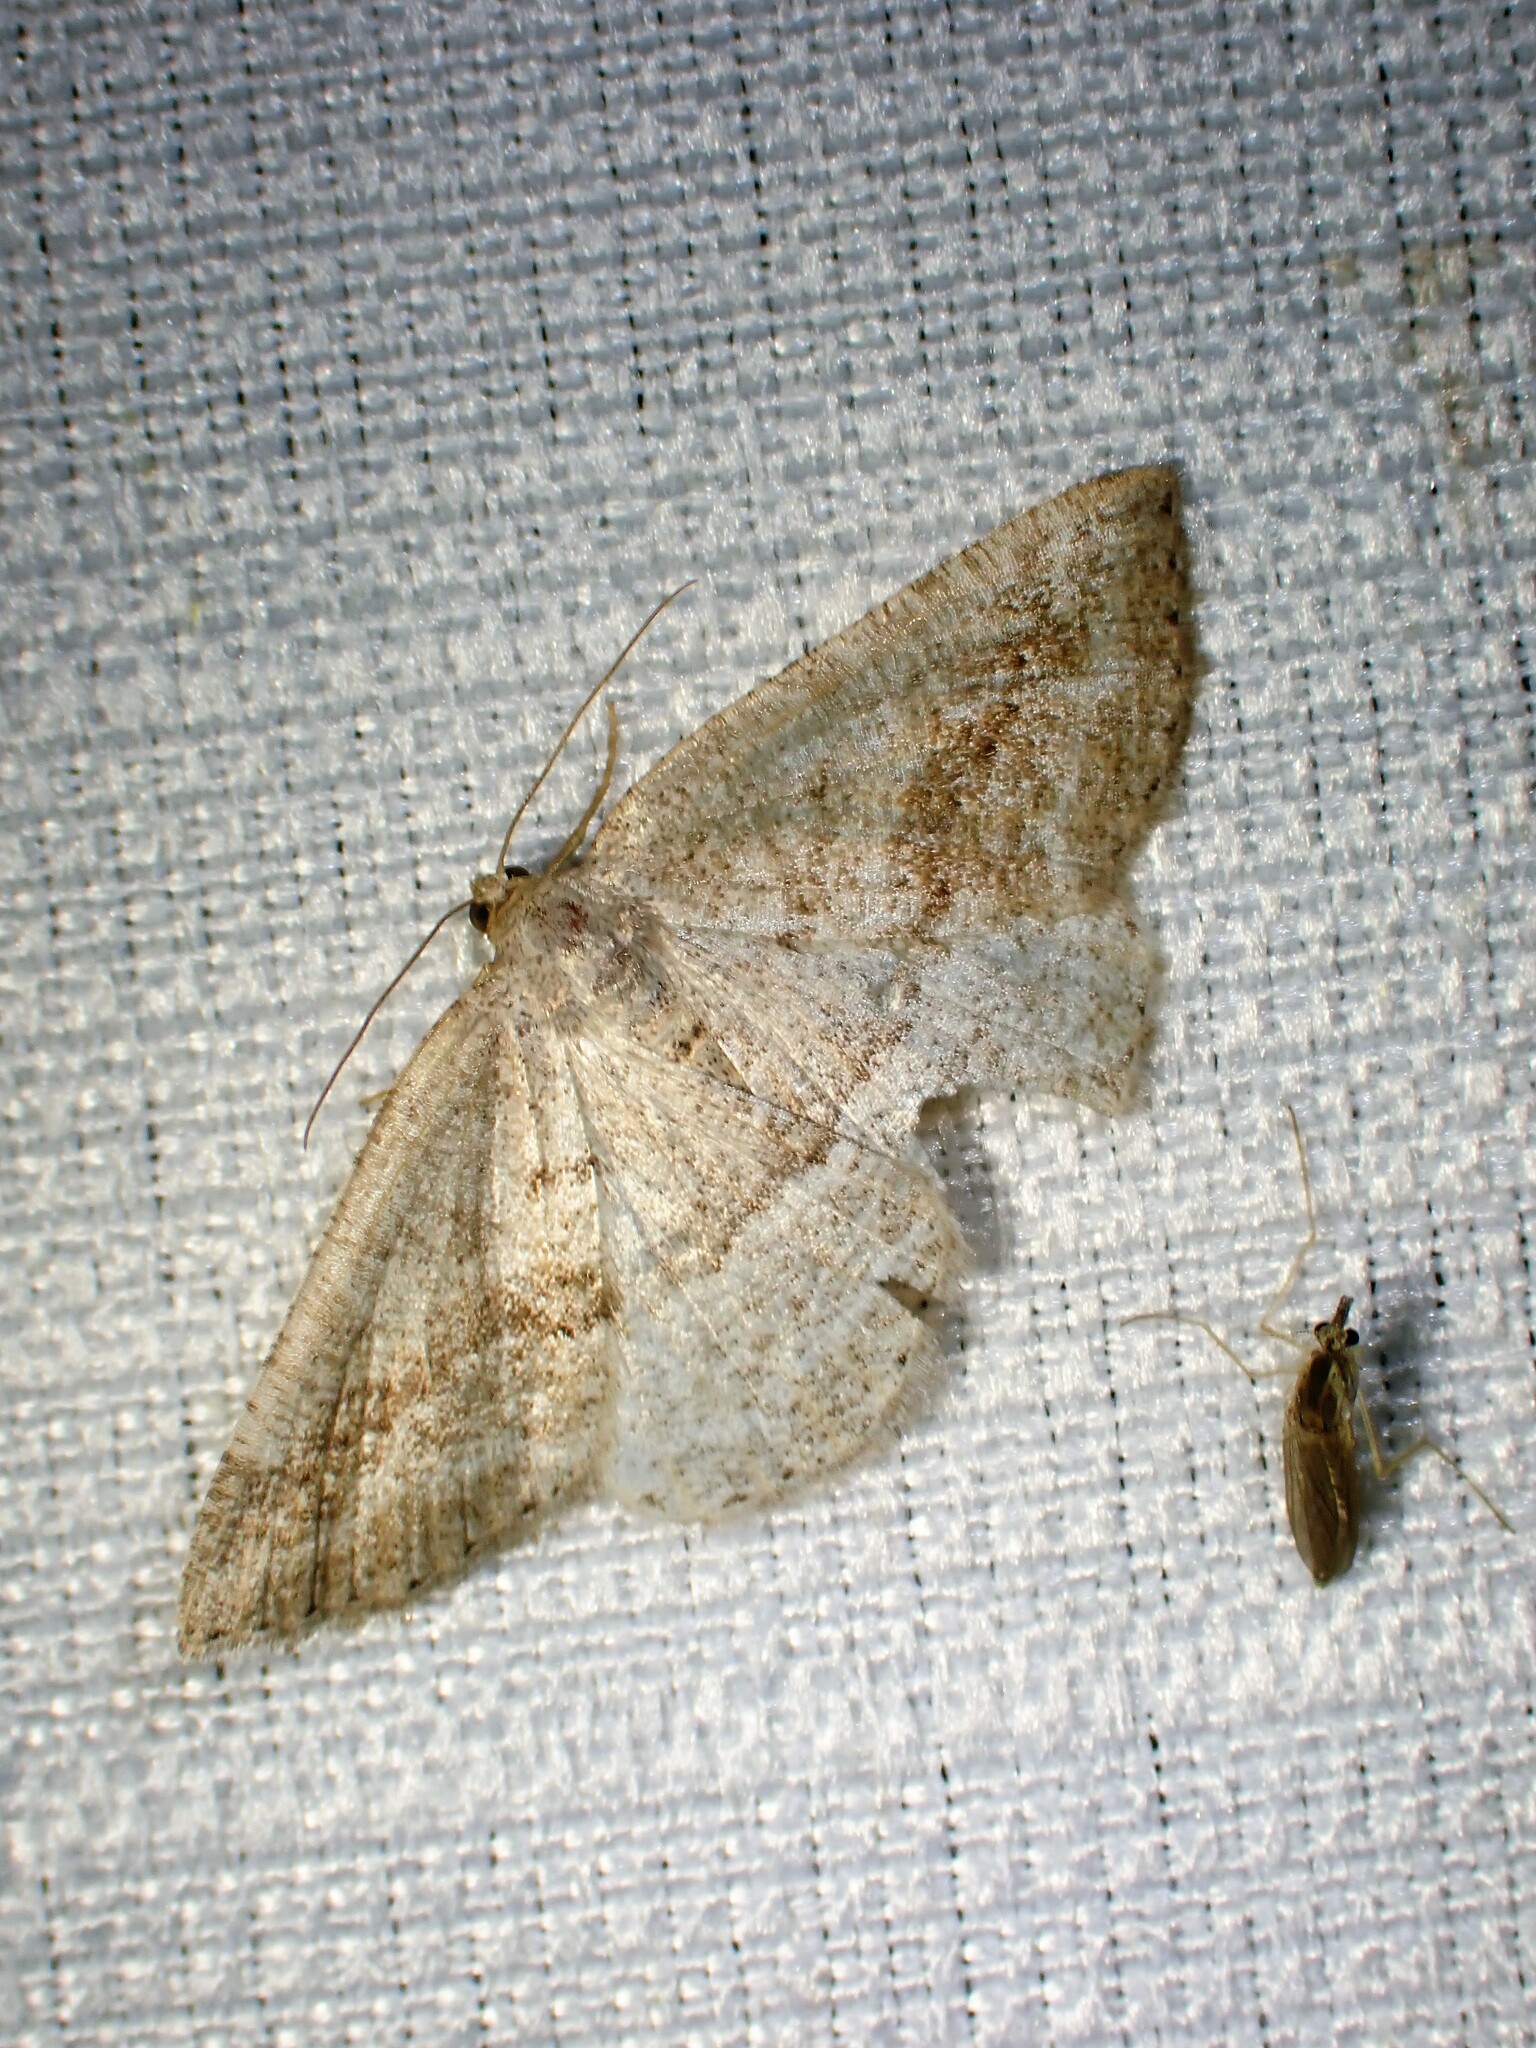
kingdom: Animalia
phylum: Arthropoda
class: Insecta
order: Lepidoptera
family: Geometridae
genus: Tacparia
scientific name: Tacparia detersata
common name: Pale alder moth
